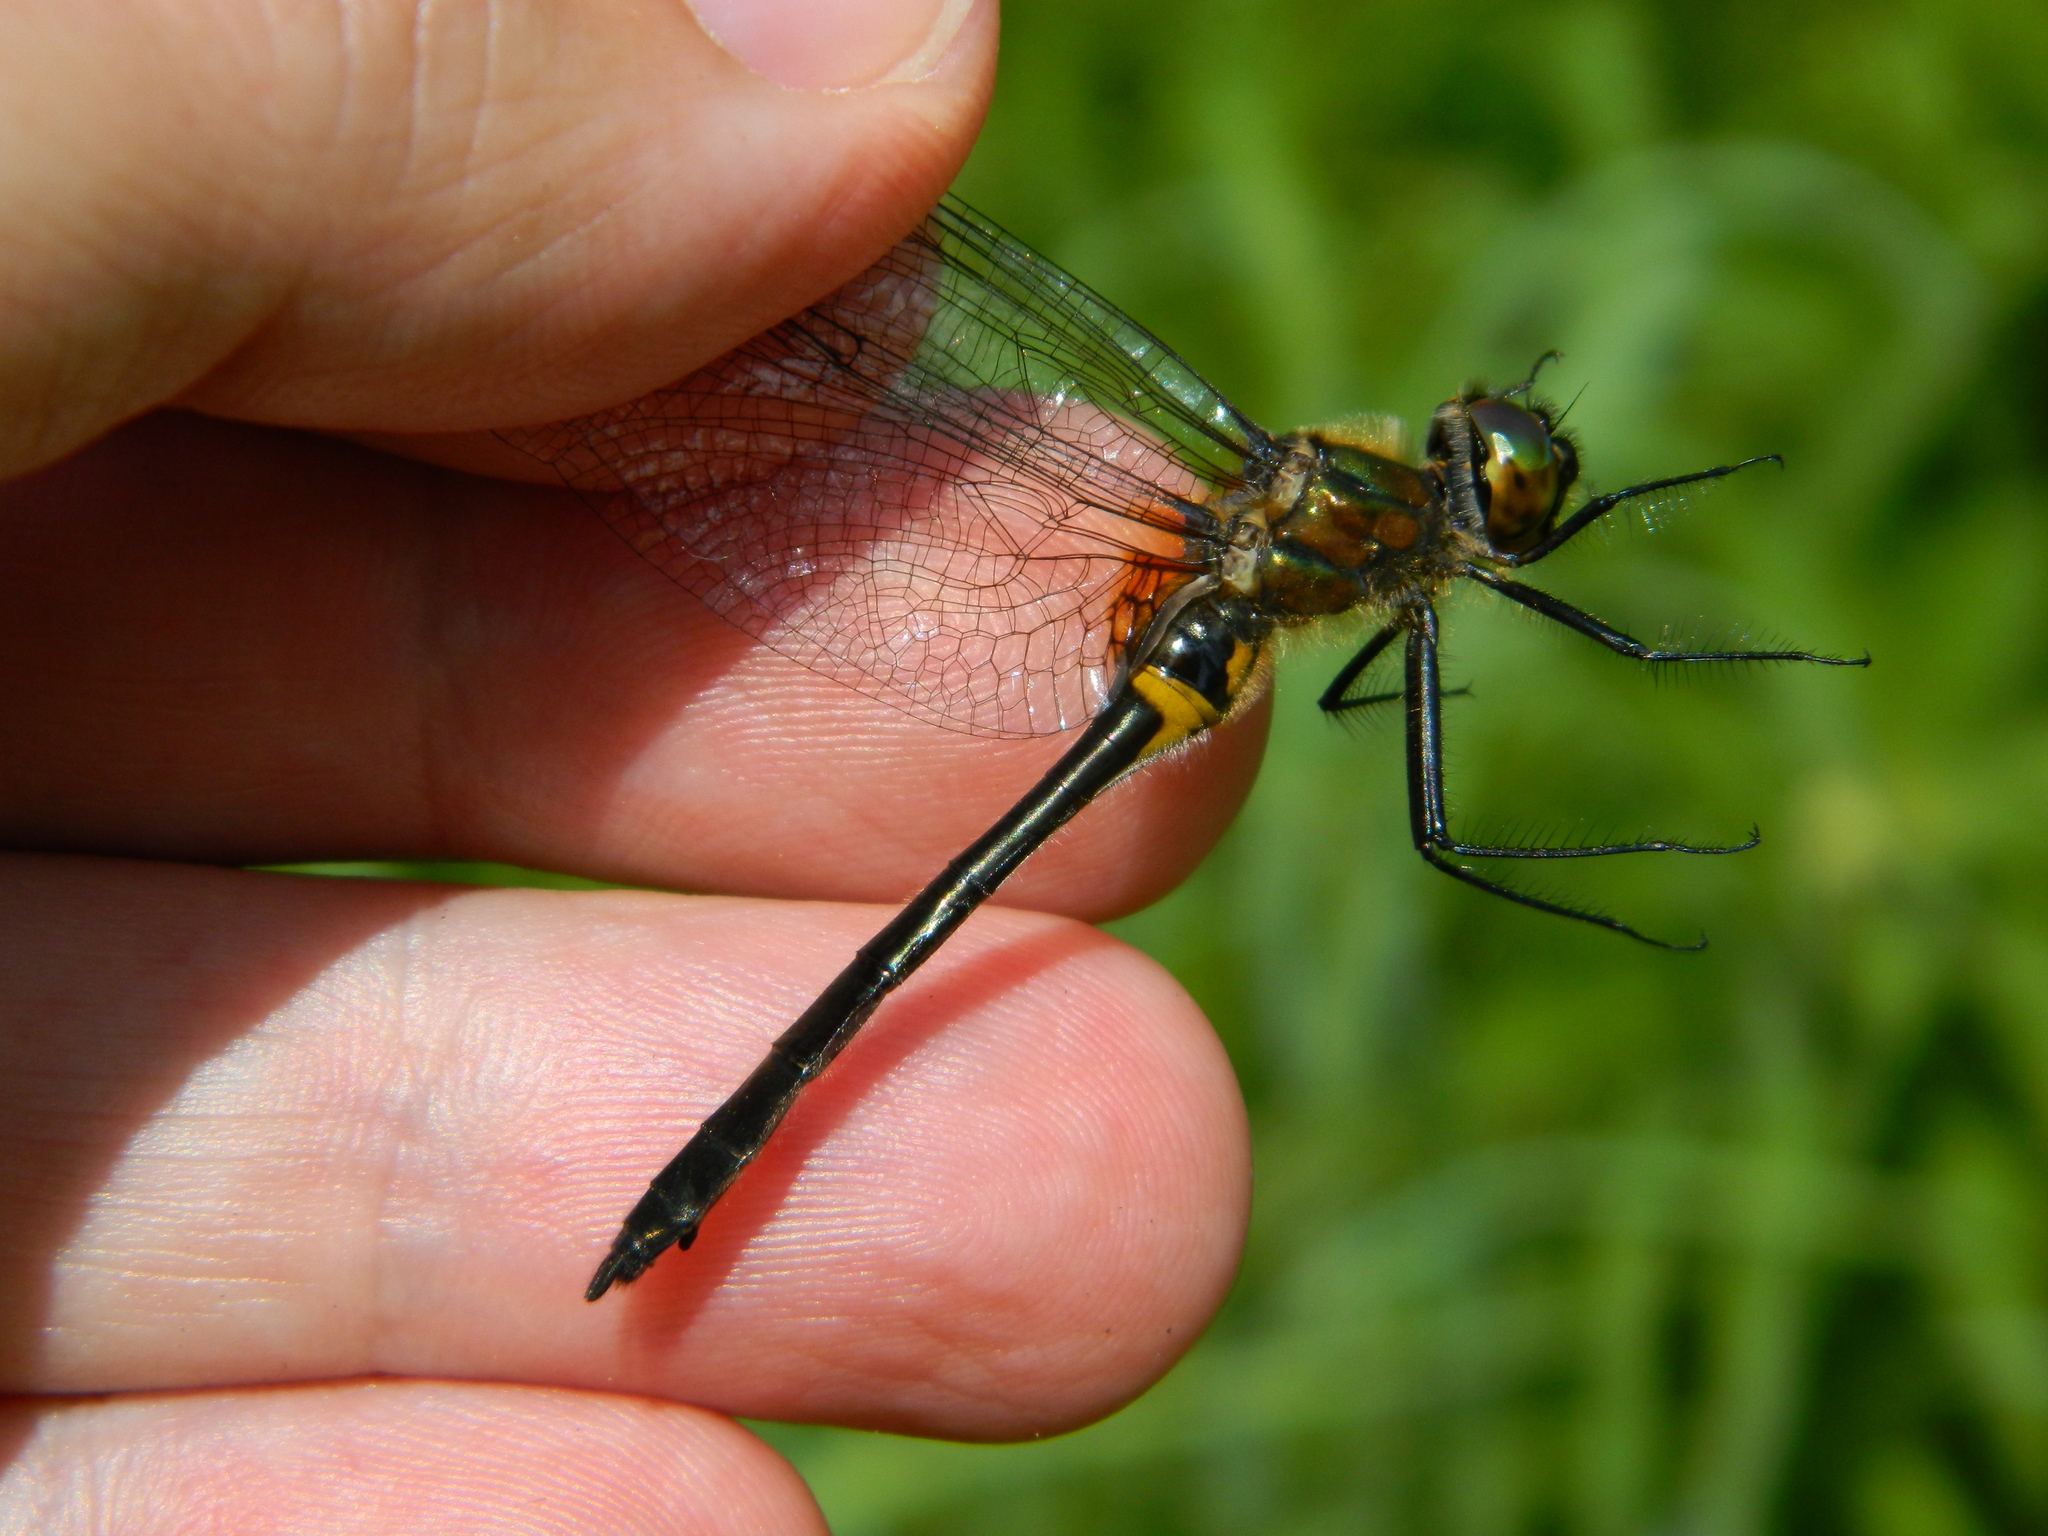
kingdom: Animalia
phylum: Arthropoda
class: Insecta
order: Odonata
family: Corduliidae
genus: Dorocordulia
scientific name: Dorocordulia libera
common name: Racket-tailed emerald
